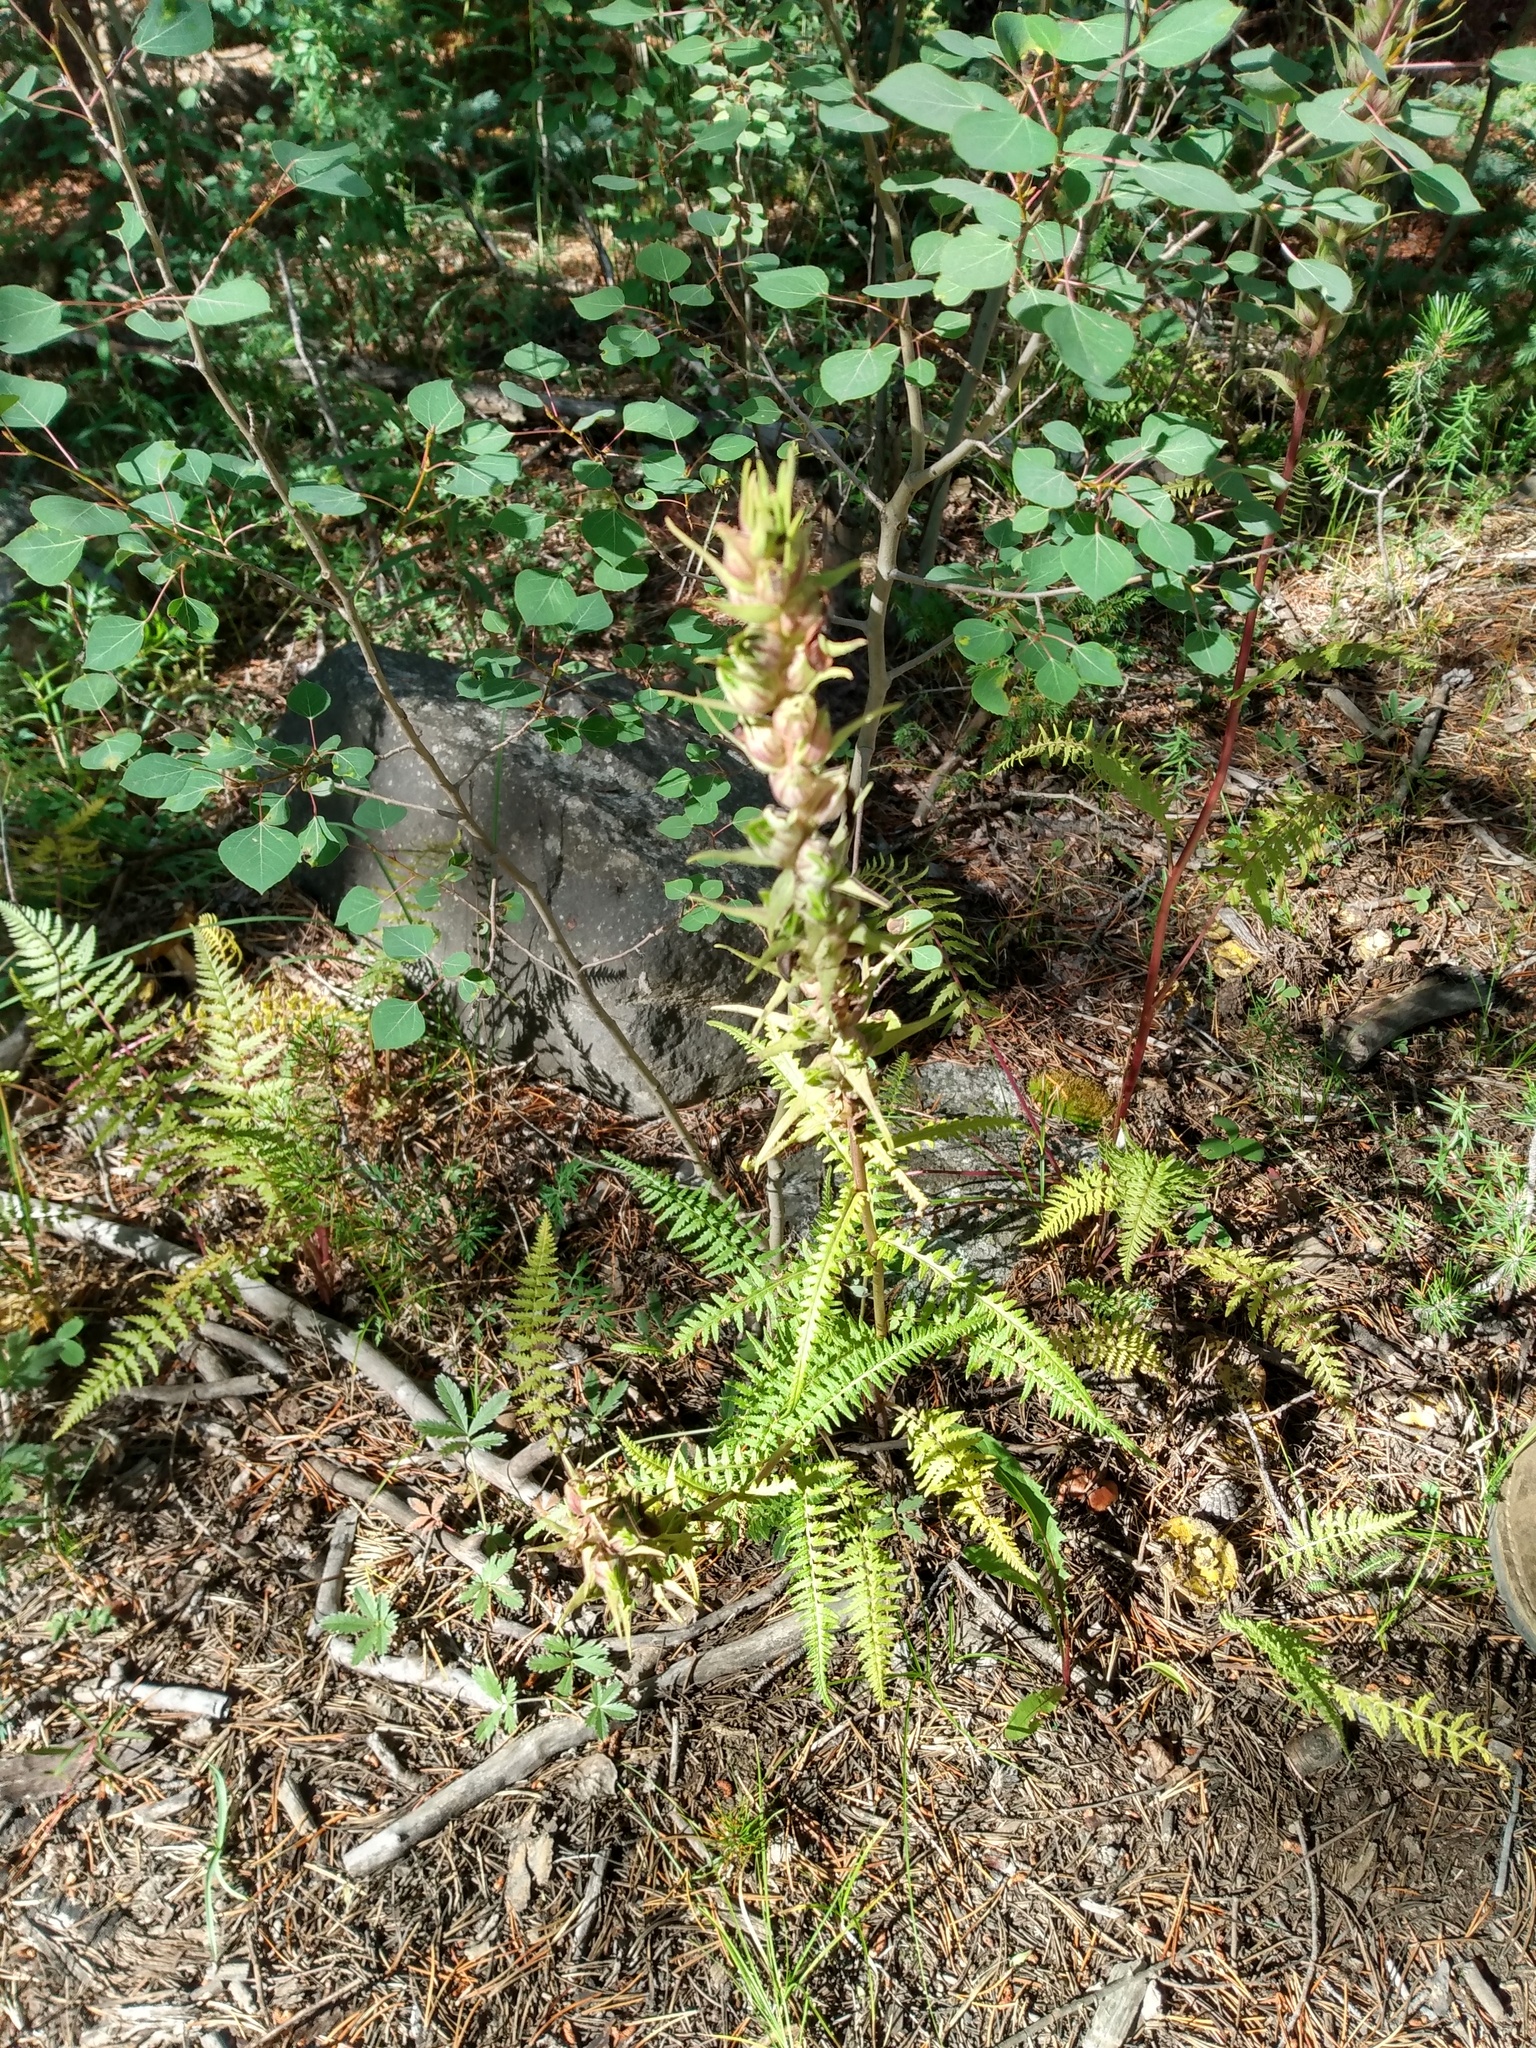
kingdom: Plantae
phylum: Tracheophyta
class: Magnoliopsida
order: Lamiales
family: Orobanchaceae
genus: Pedicularis
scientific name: Pedicularis procera
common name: Gray's lousewort
